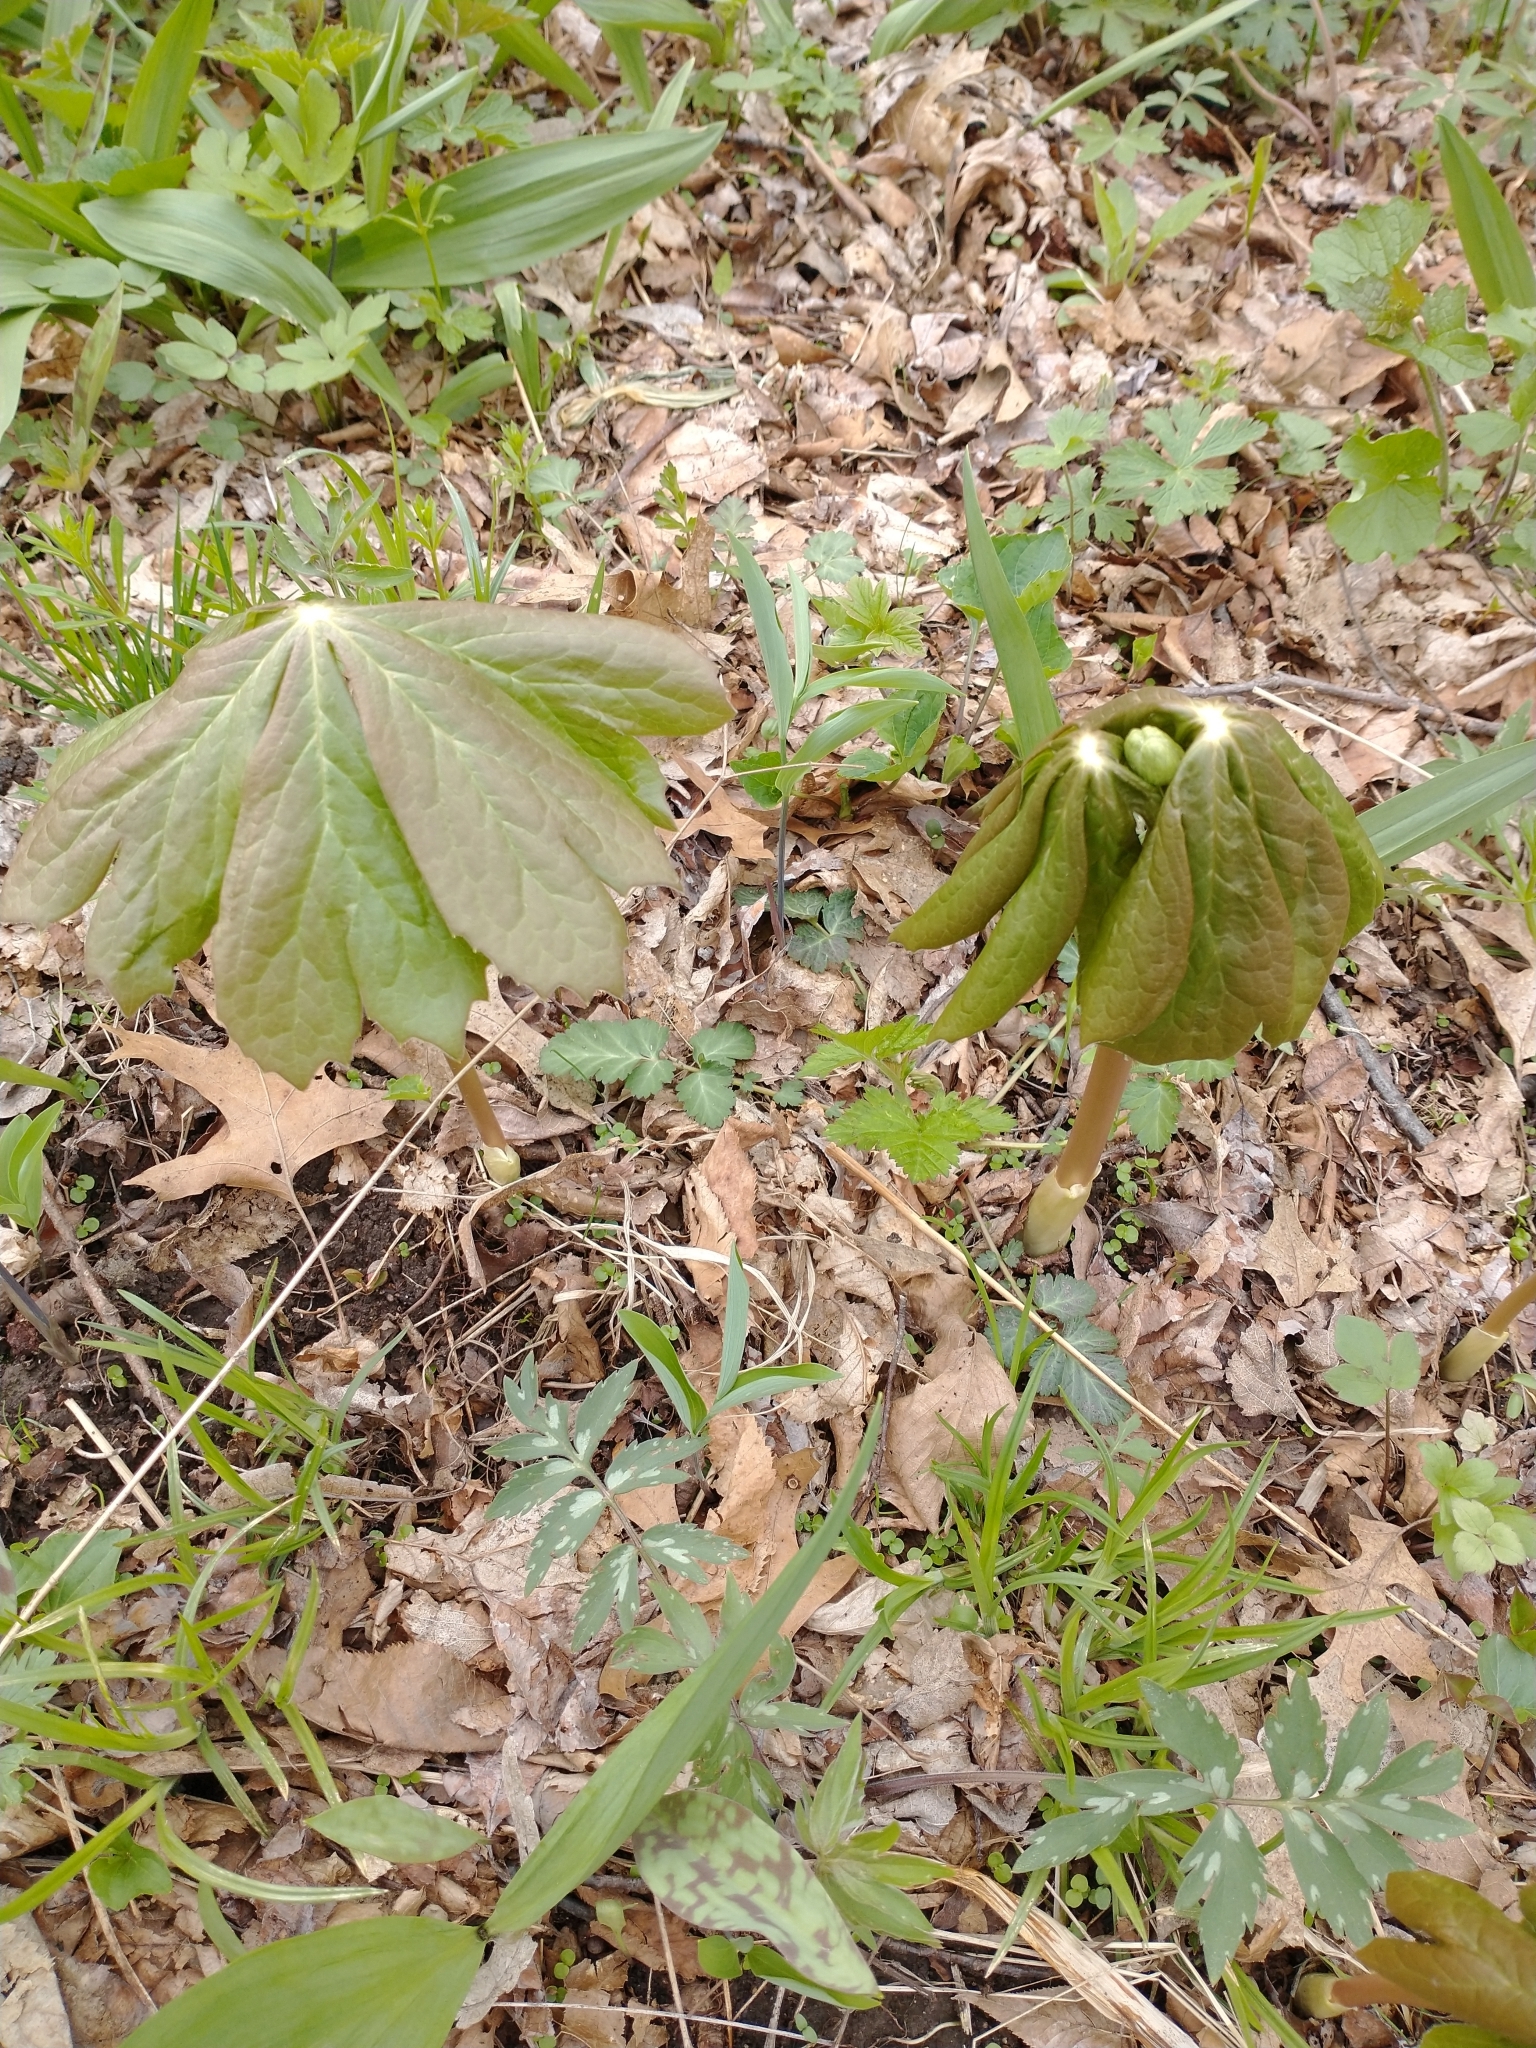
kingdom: Plantae
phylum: Tracheophyta
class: Magnoliopsida
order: Ranunculales
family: Berberidaceae
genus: Podophyllum
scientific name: Podophyllum peltatum
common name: Wild mandrake
